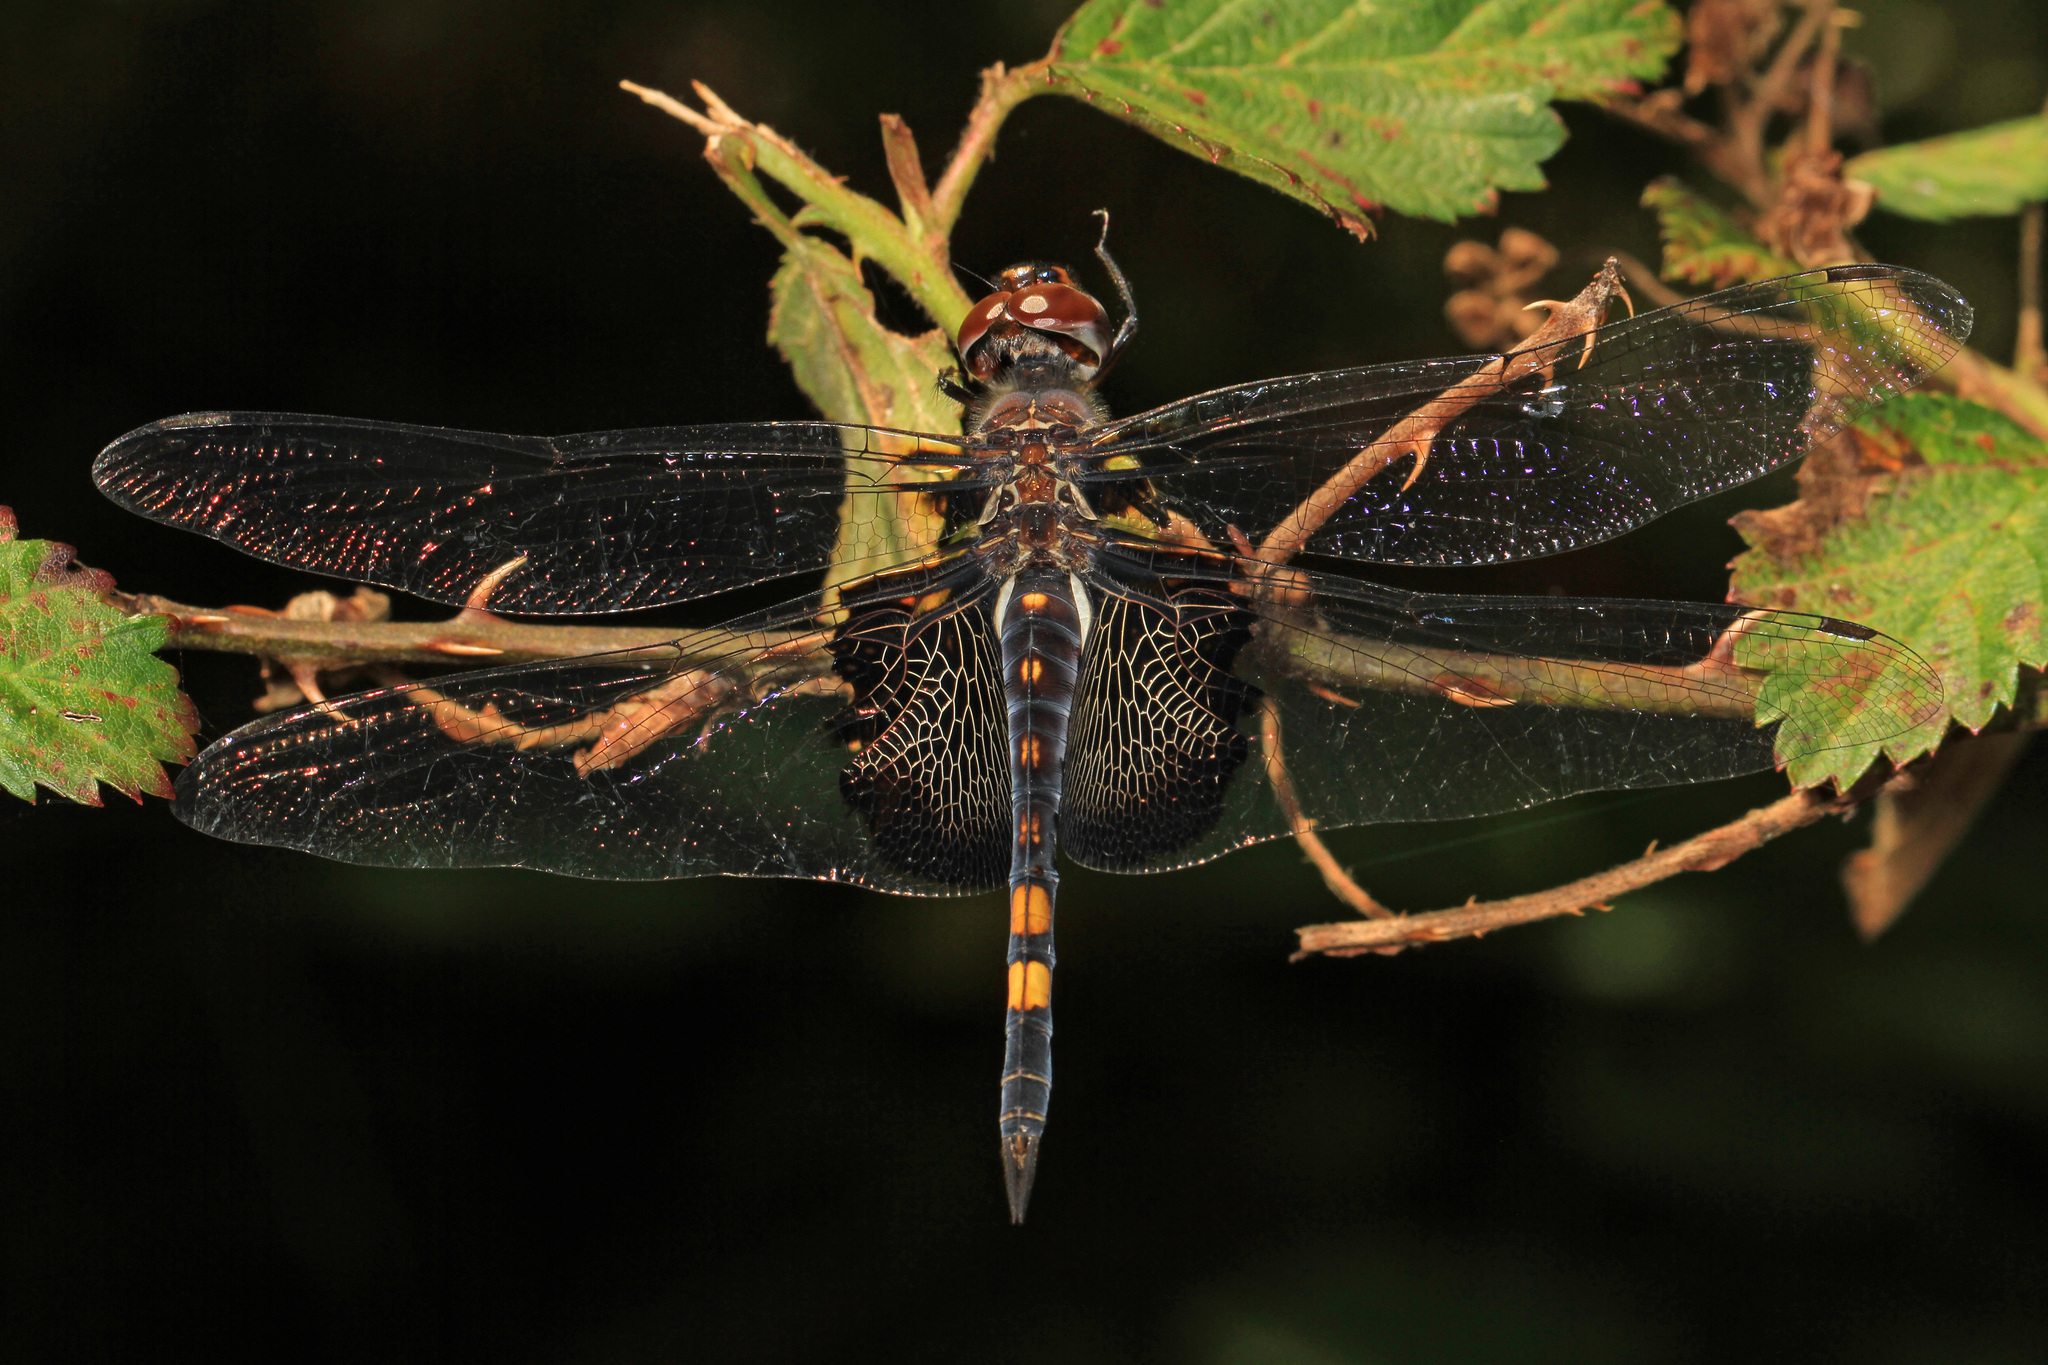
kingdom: Animalia
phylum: Arthropoda
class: Insecta
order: Odonata
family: Libellulidae
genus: Tramea
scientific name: Tramea lacerata
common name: Black saddlebags
